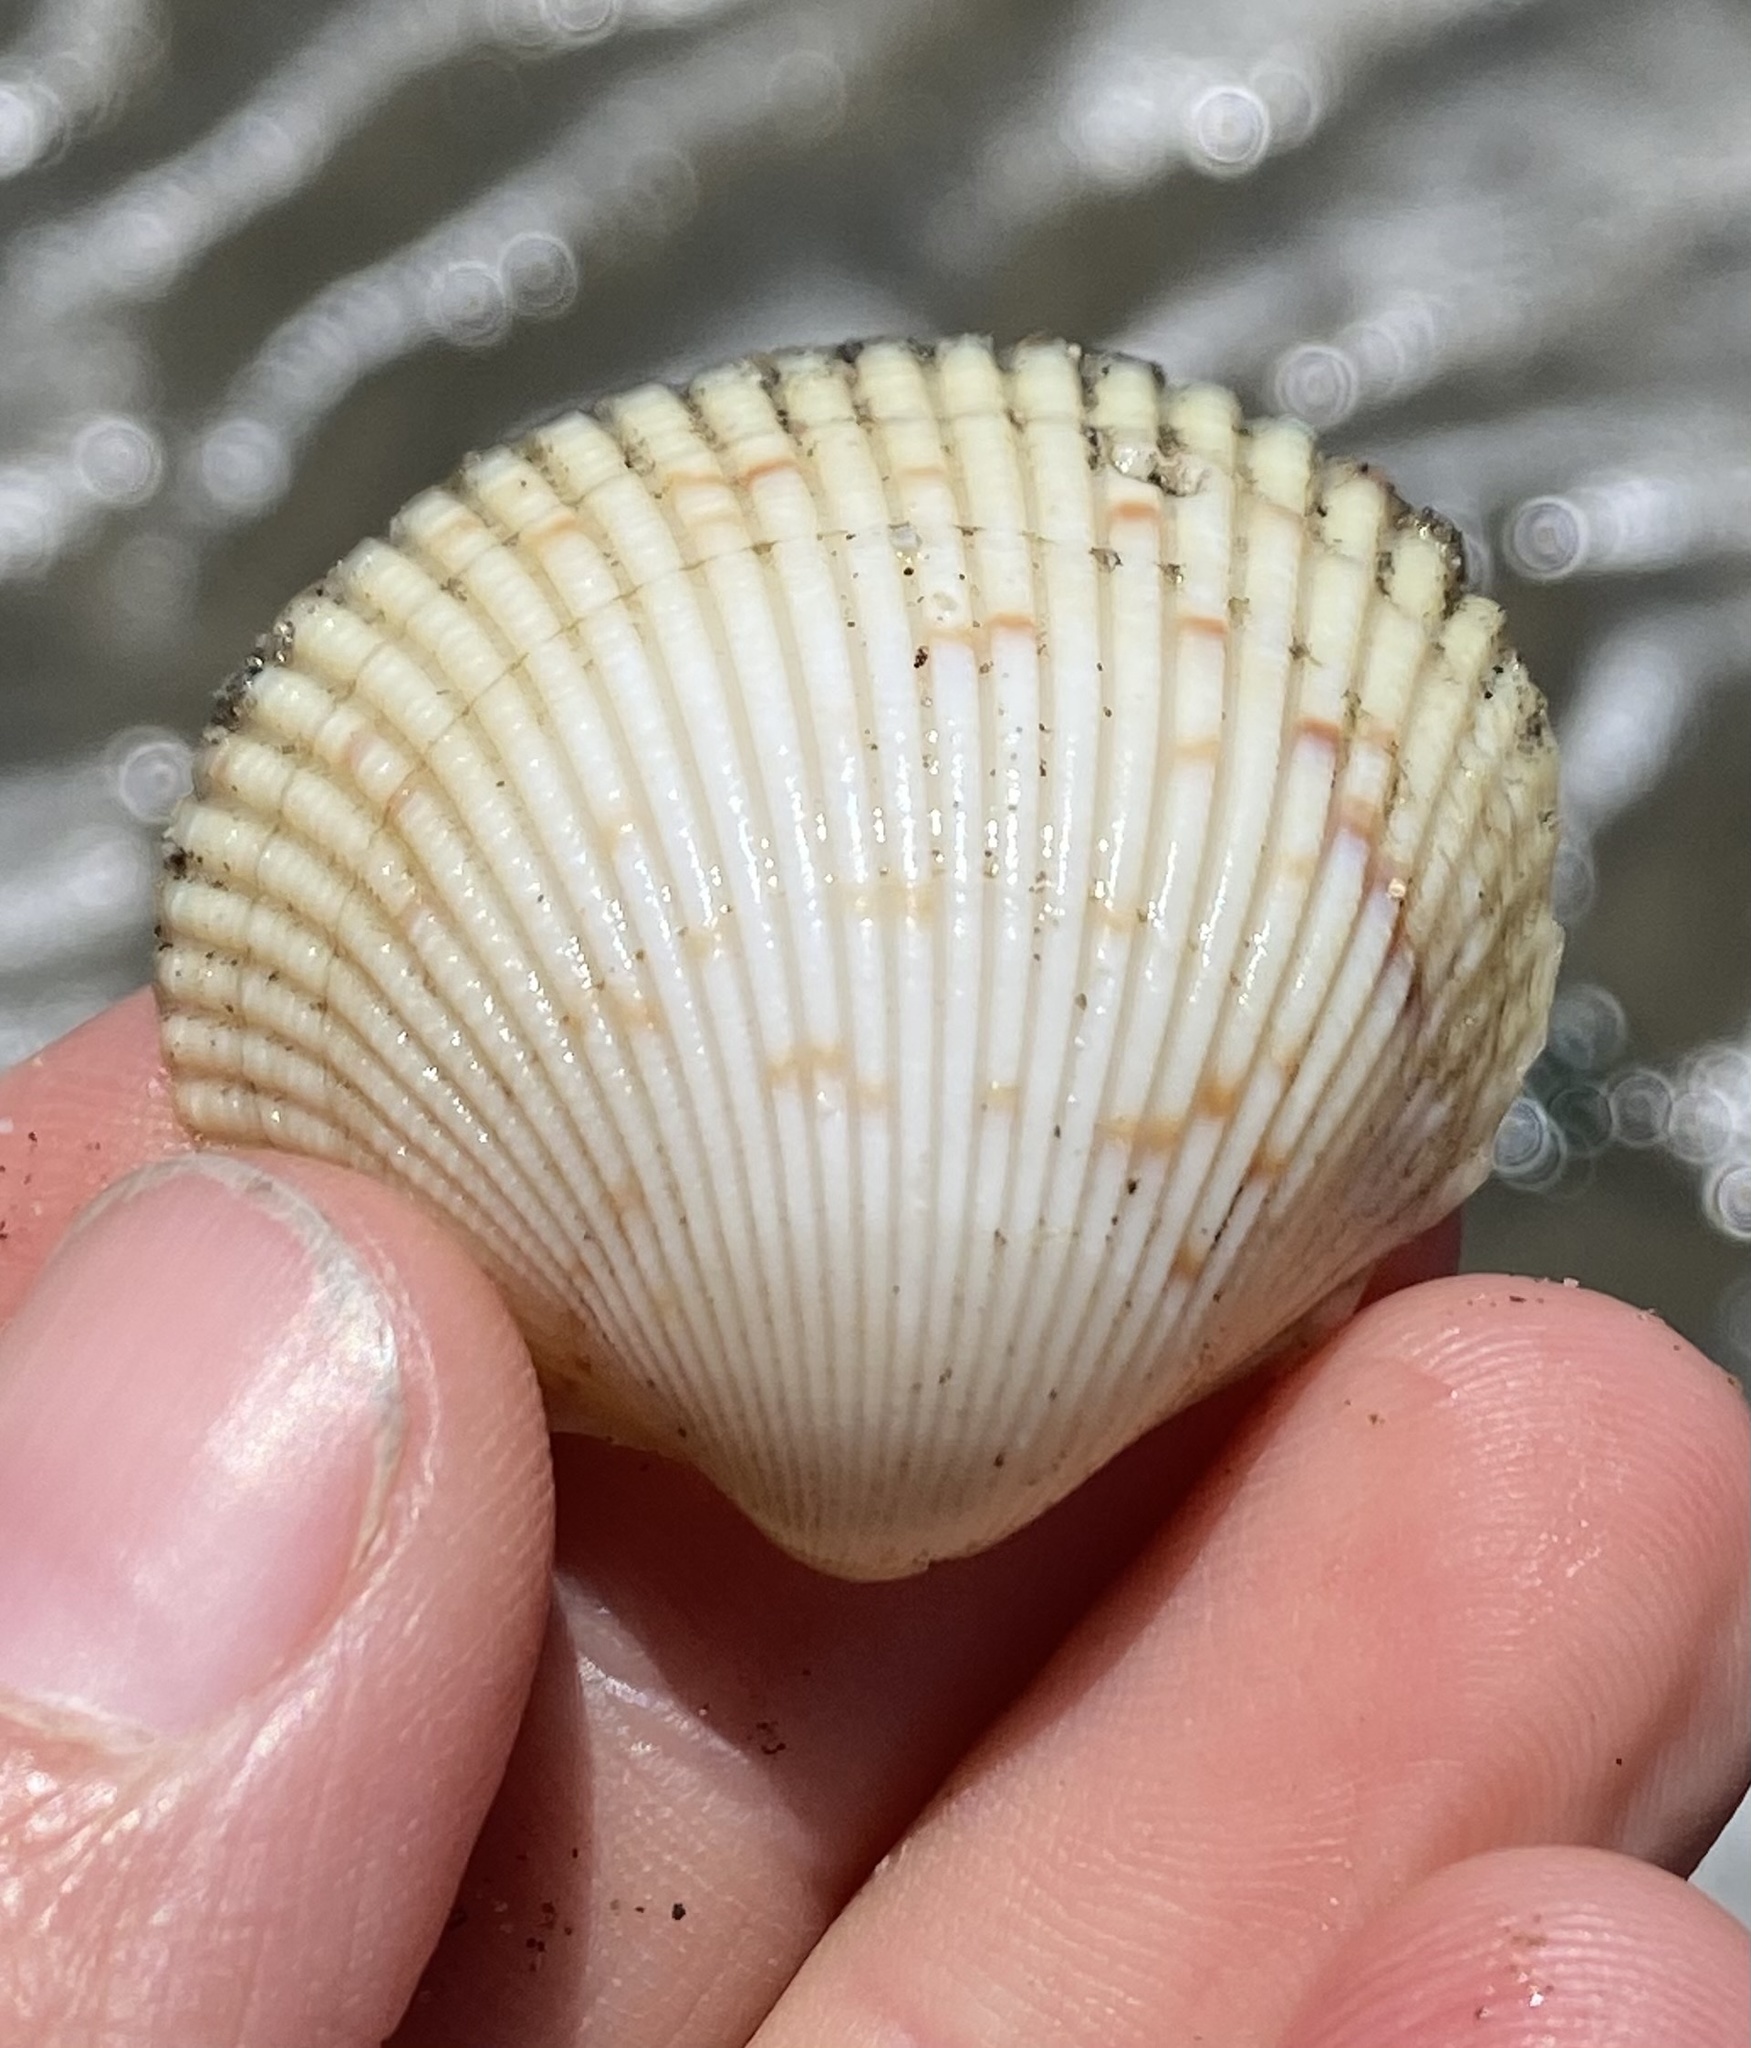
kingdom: Animalia
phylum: Mollusca
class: Bivalvia
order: Cardiida
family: Cardiidae
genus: Clinocardium
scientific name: Clinocardium nuttallii
